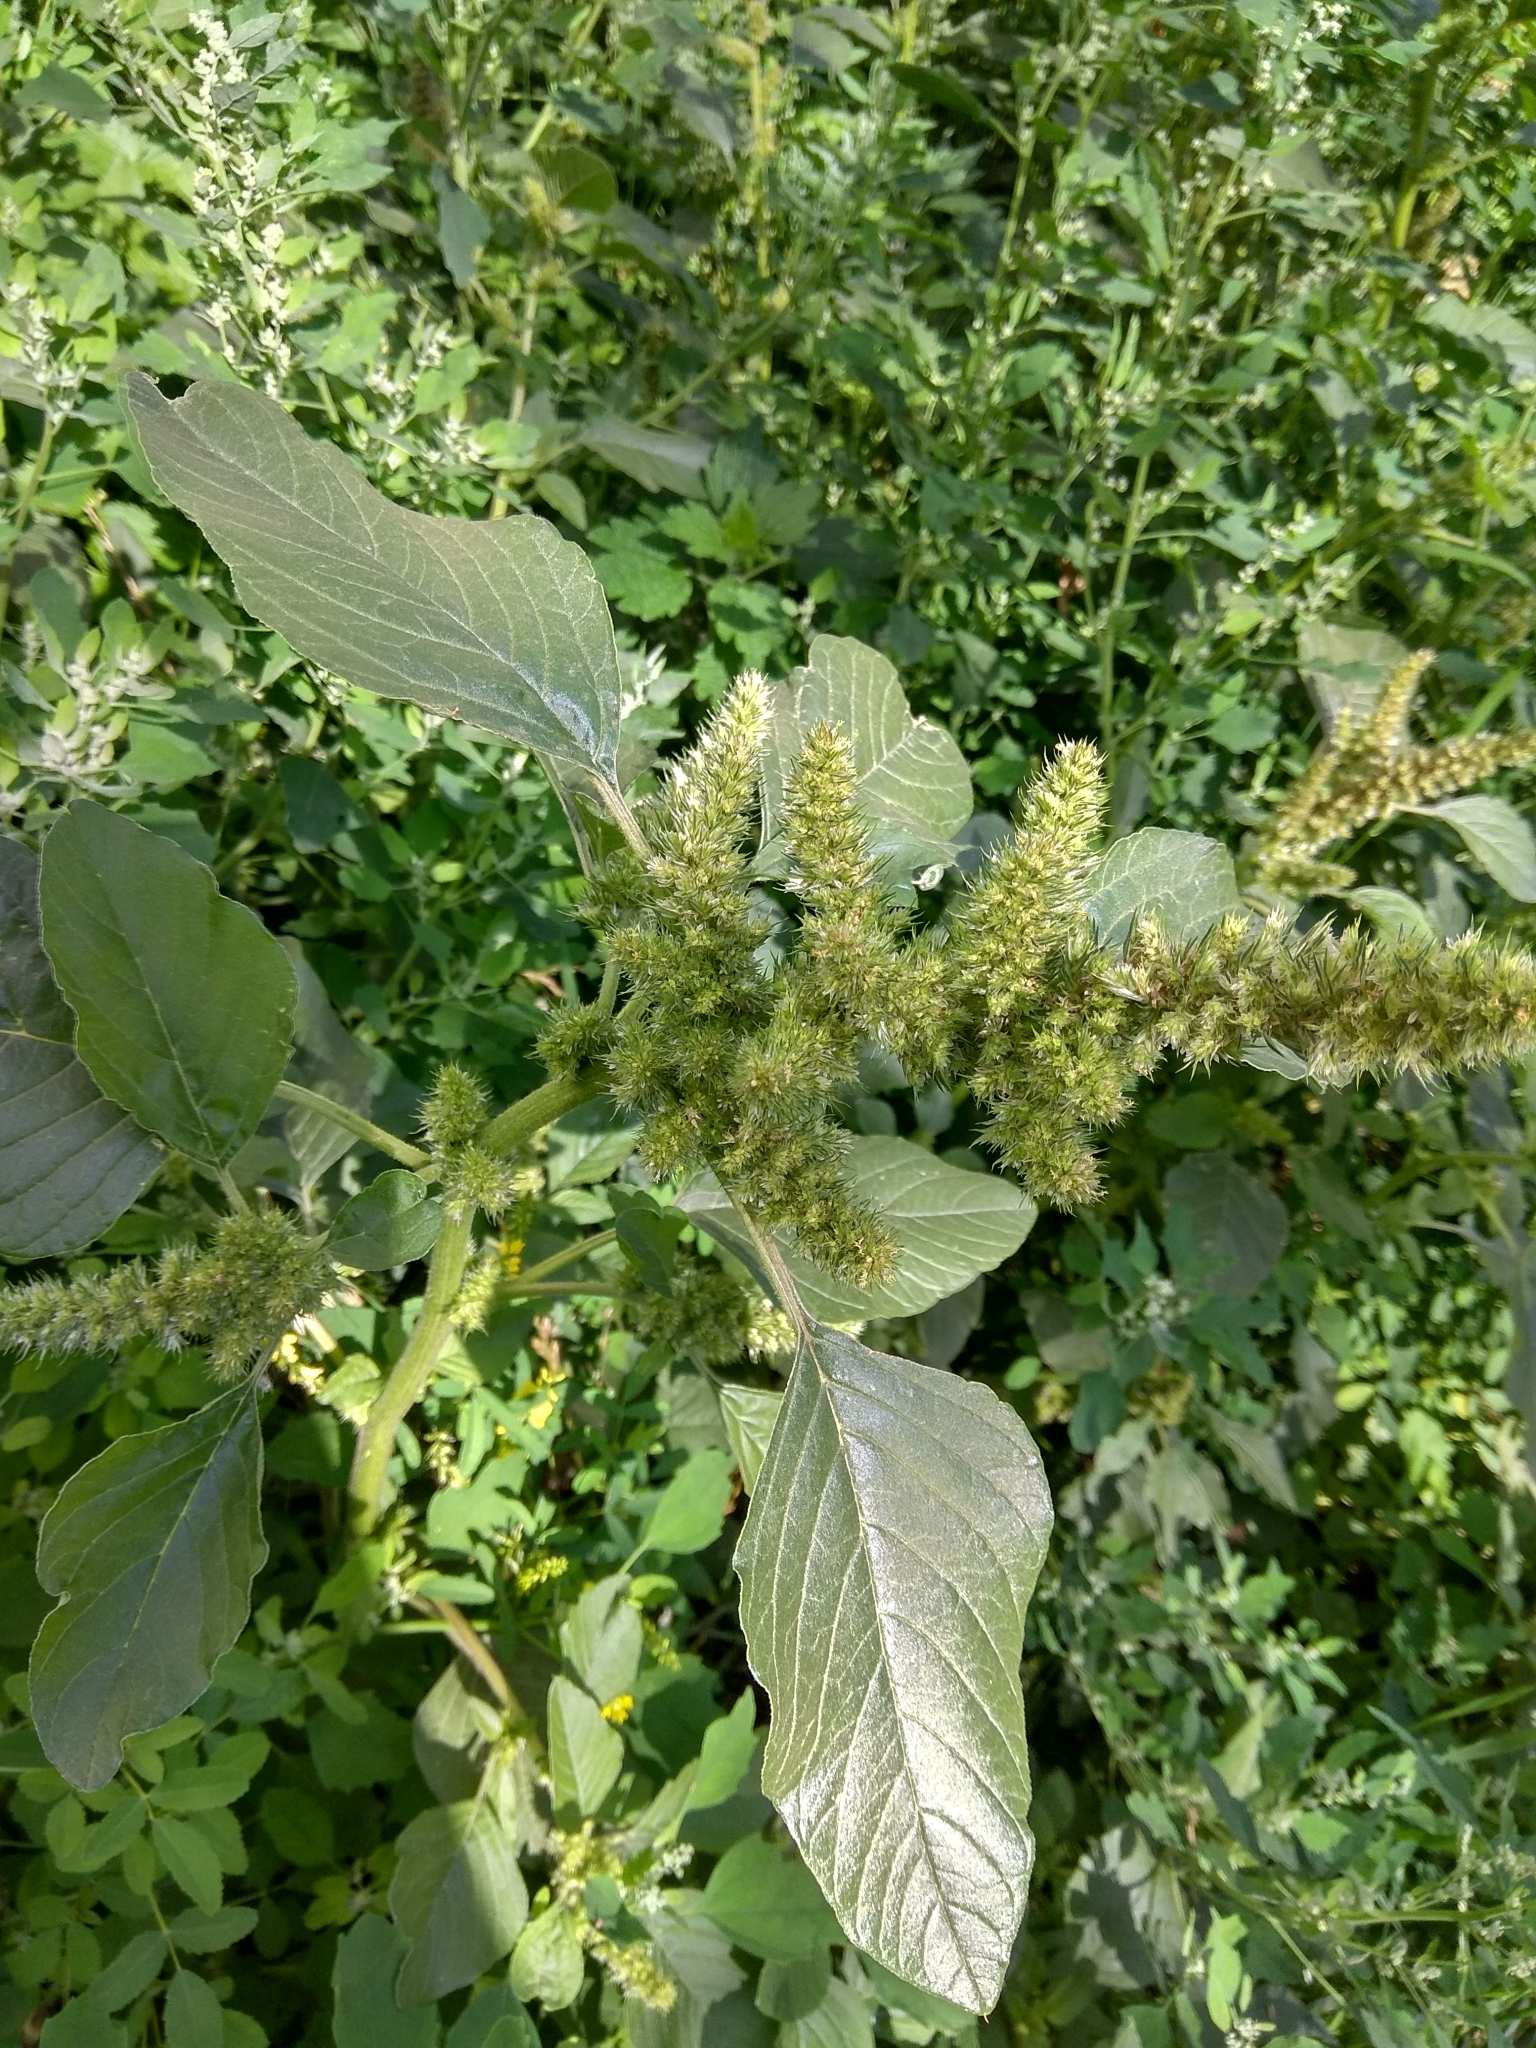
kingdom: Plantae
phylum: Tracheophyta
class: Magnoliopsida
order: Caryophyllales
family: Amaranthaceae
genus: Amaranthus
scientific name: Amaranthus retroflexus
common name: Redroot amaranth
